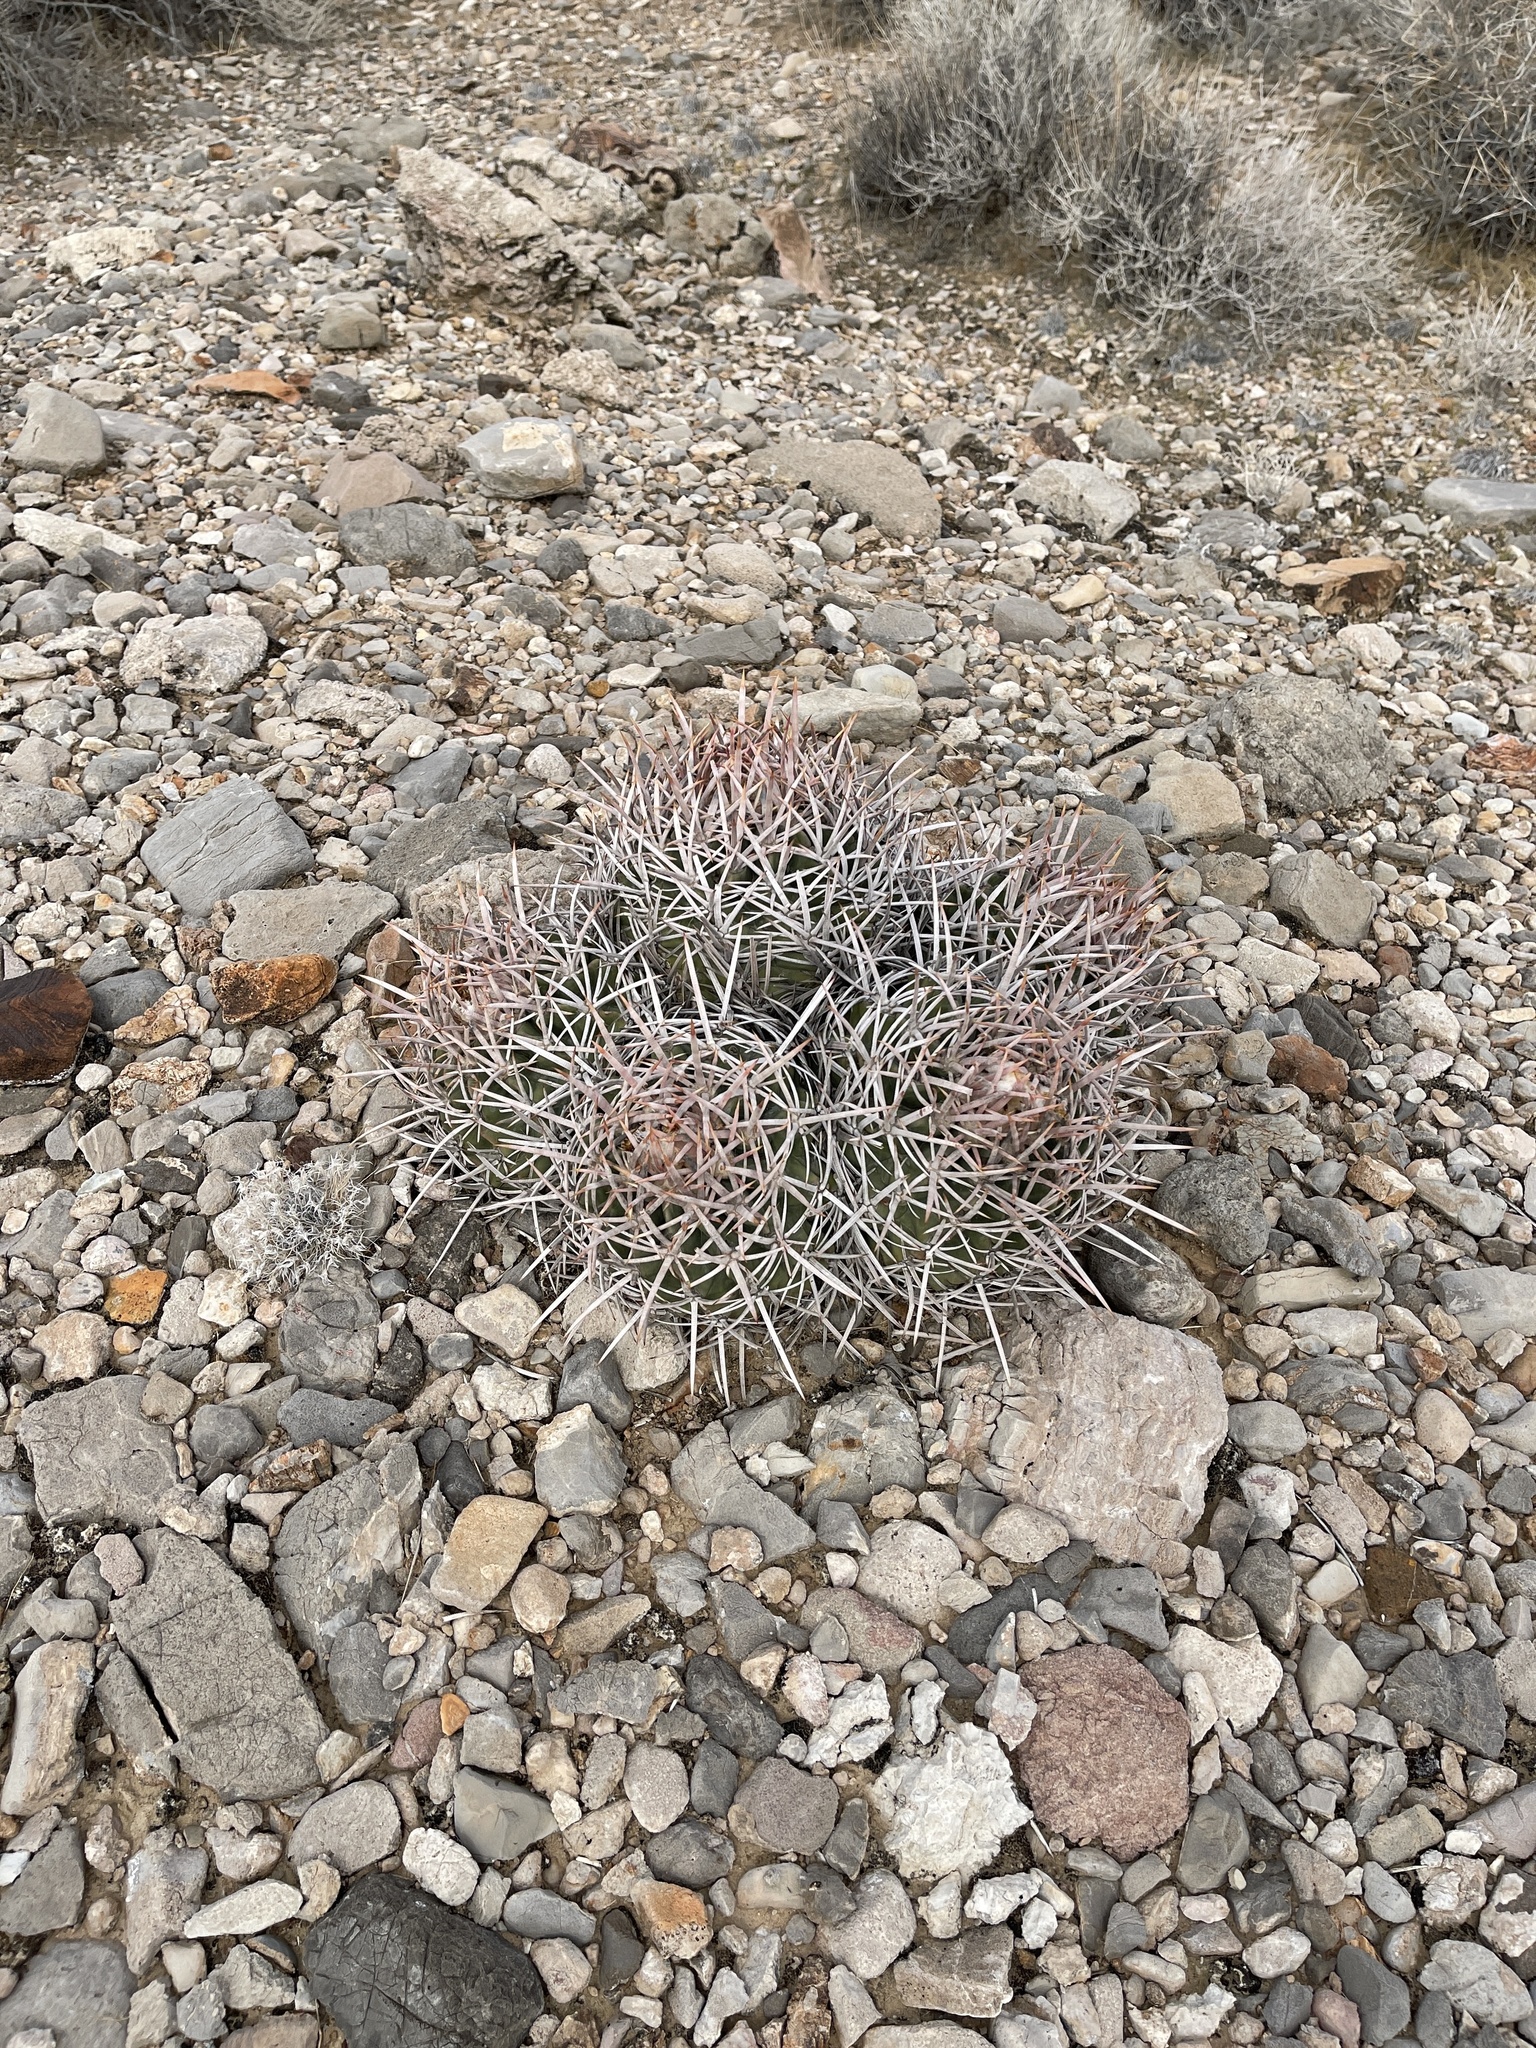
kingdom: Plantae
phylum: Tracheophyta
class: Magnoliopsida
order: Caryophyllales
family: Cactaceae
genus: Echinocactus
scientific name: Echinocactus polycephalus
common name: Cottontop cactus
